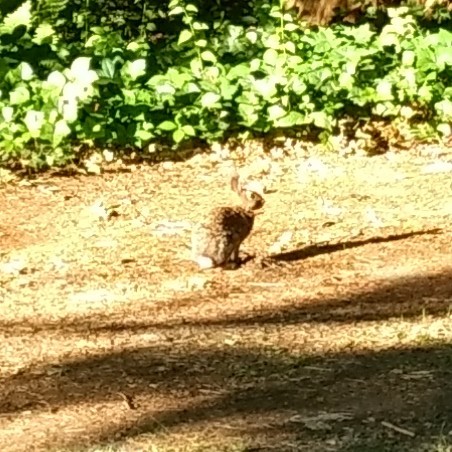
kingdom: Animalia
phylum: Chordata
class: Mammalia
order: Lagomorpha
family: Leporidae
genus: Sylvilagus
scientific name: Sylvilagus
